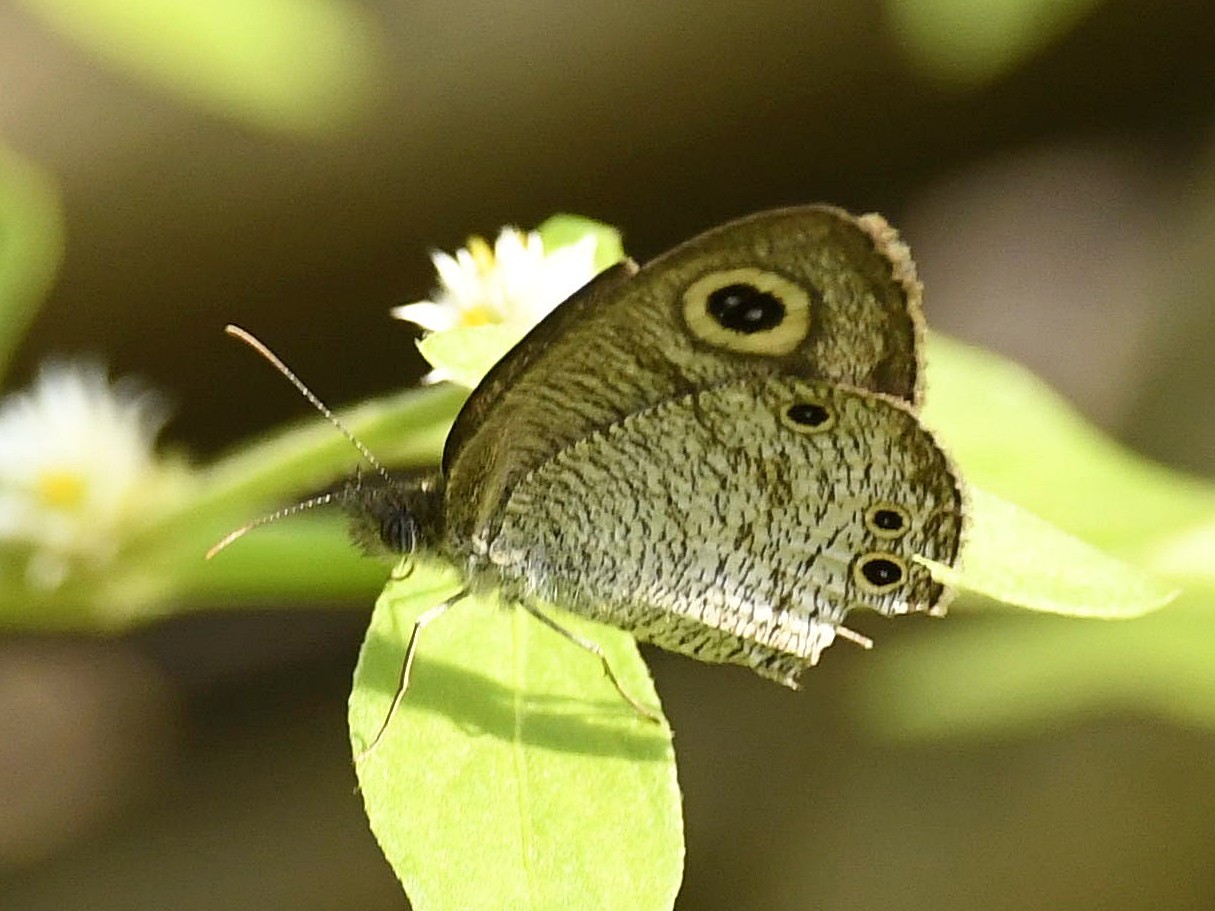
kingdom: Animalia
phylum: Arthropoda
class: Insecta
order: Lepidoptera
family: Nymphalidae
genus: Ypthima
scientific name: Ypthima huebneri
